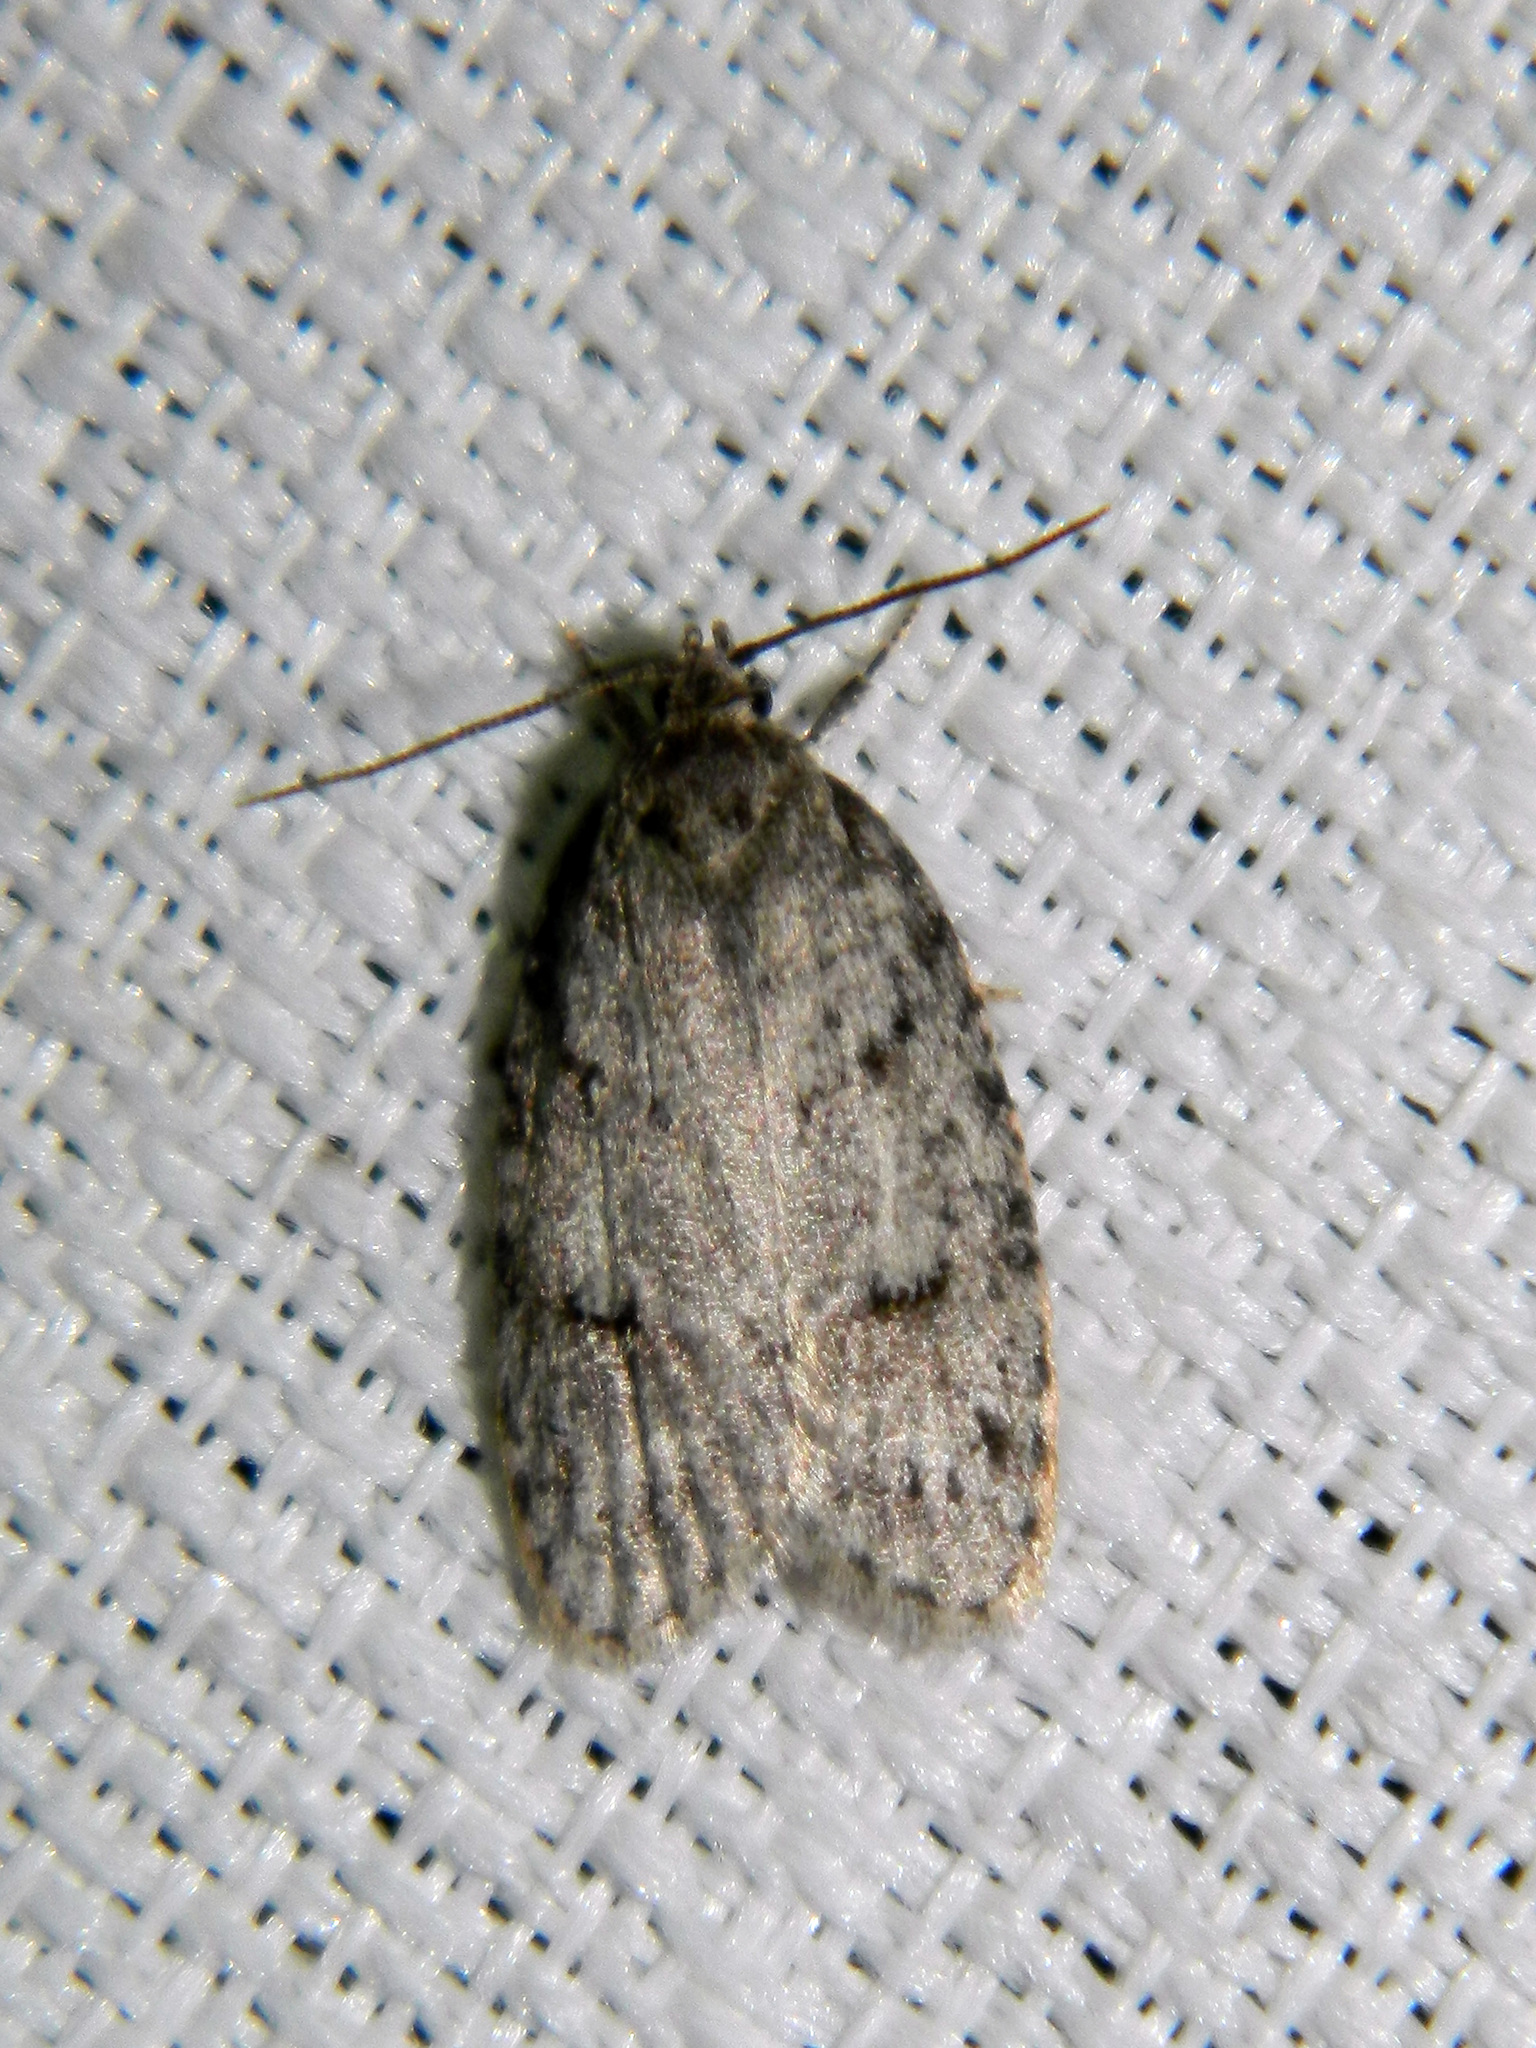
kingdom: Animalia
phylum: Arthropoda
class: Insecta
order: Lepidoptera
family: Depressariidae
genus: Bibarrambla
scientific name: Bibarrambla allenella
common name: Bog bibarrambla moth
